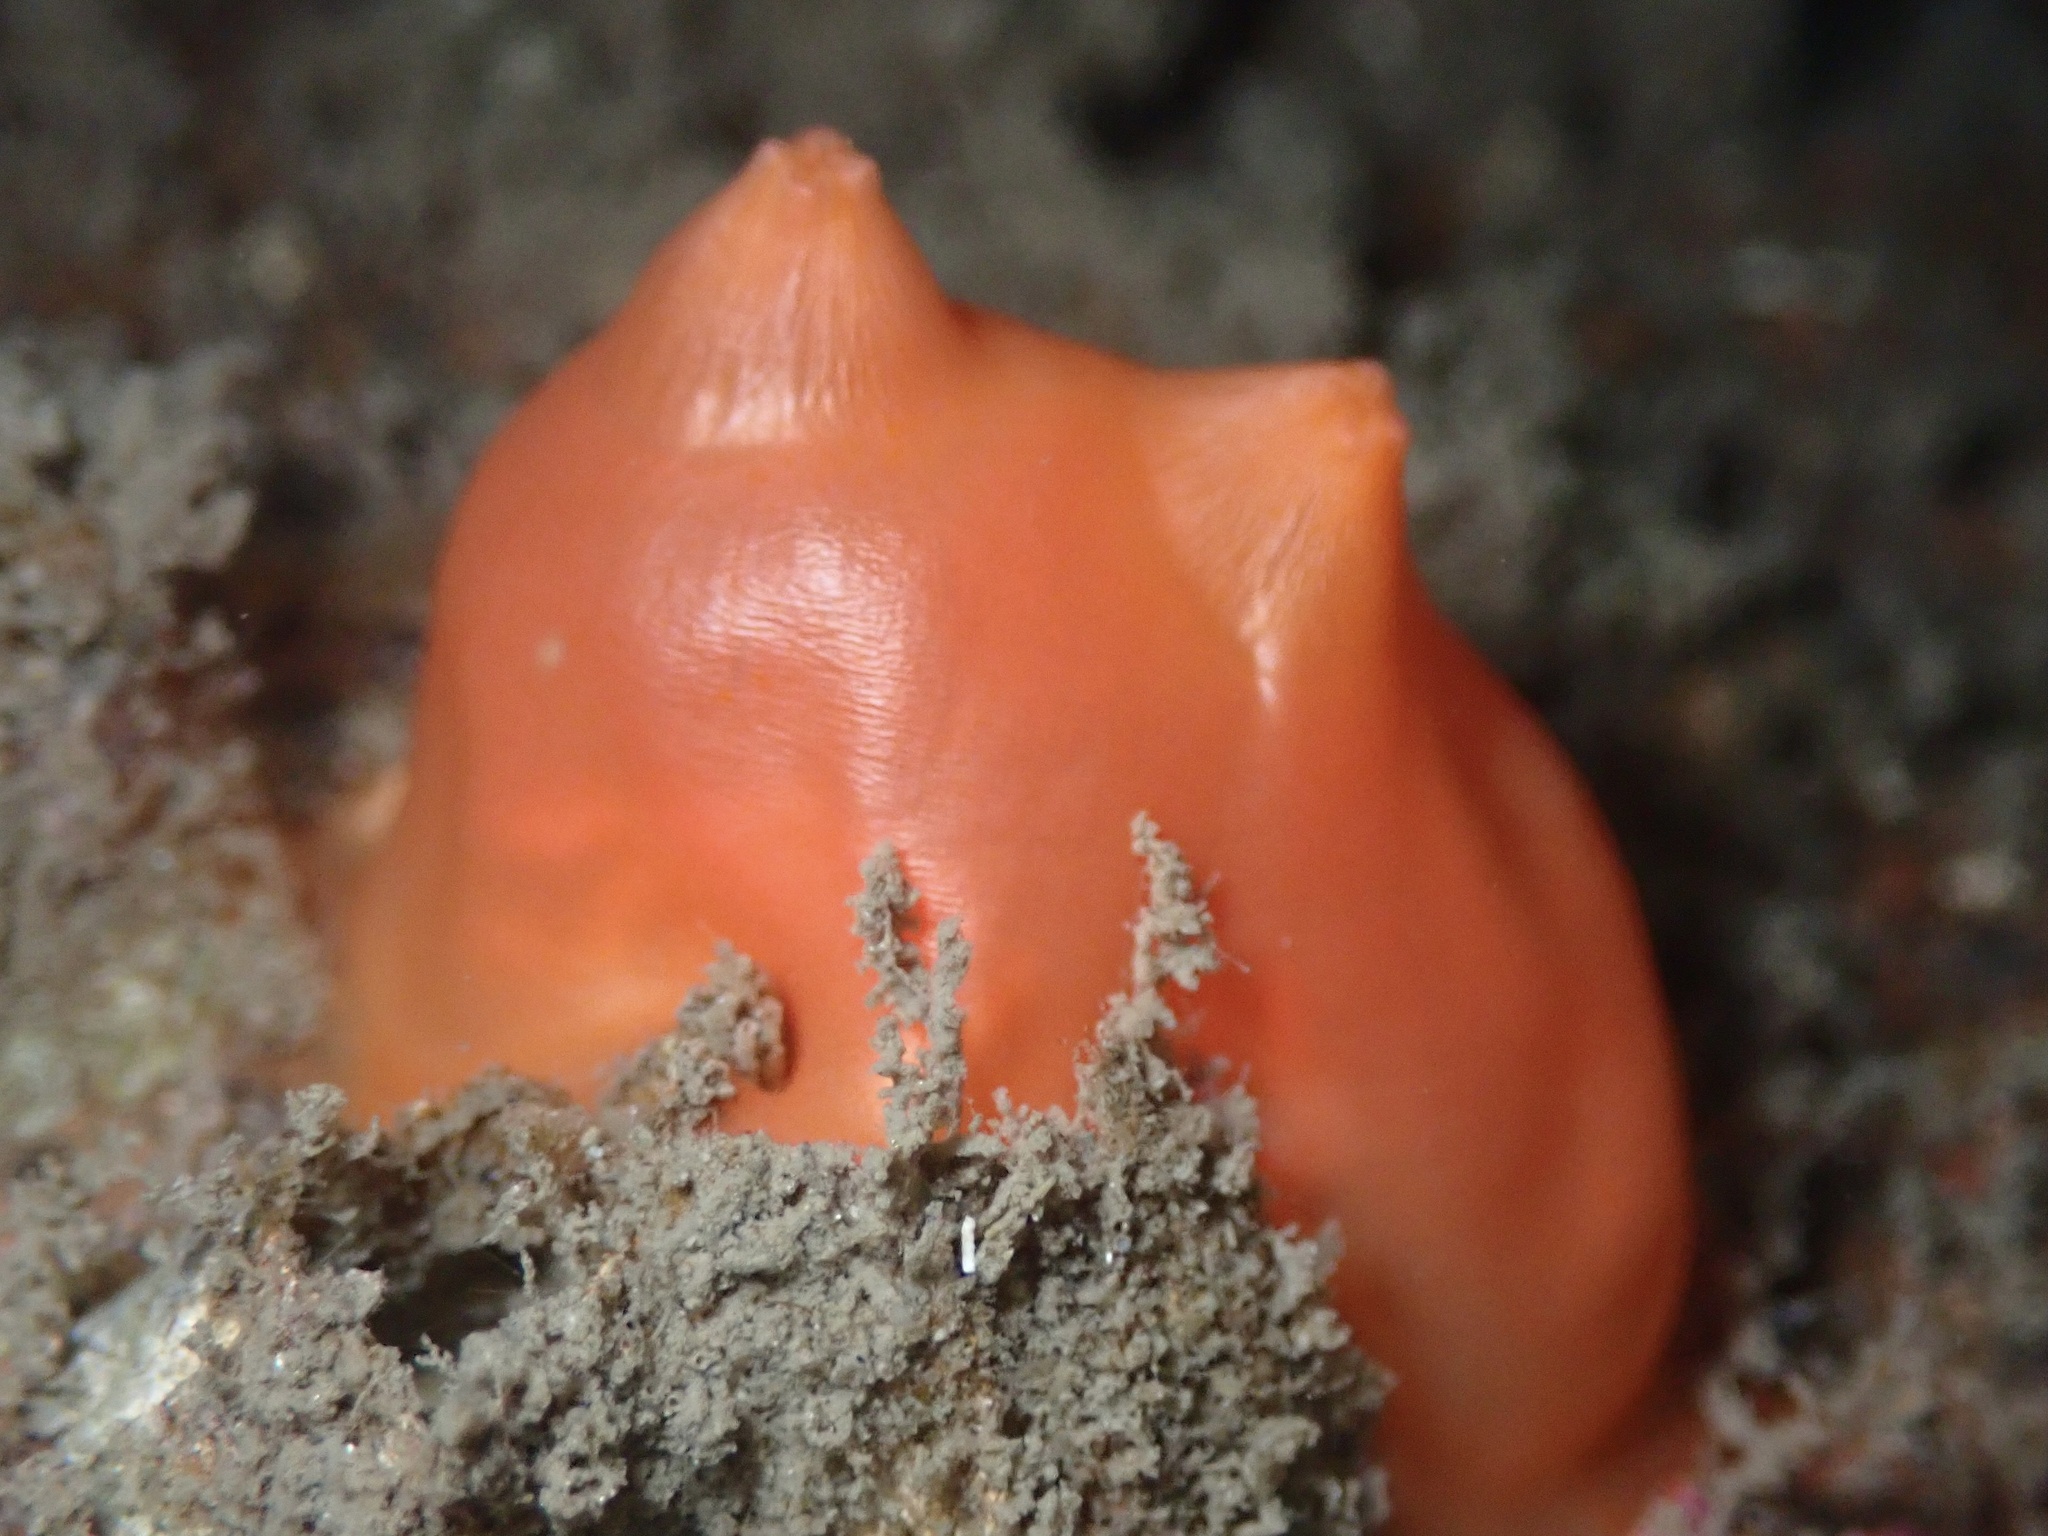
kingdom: Animalia
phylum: Chordata
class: Ascidiacea
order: Stolidobranchia
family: Styelidae
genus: Cnemidocarpa
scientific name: Cnemidocarpa finmarkiensis
